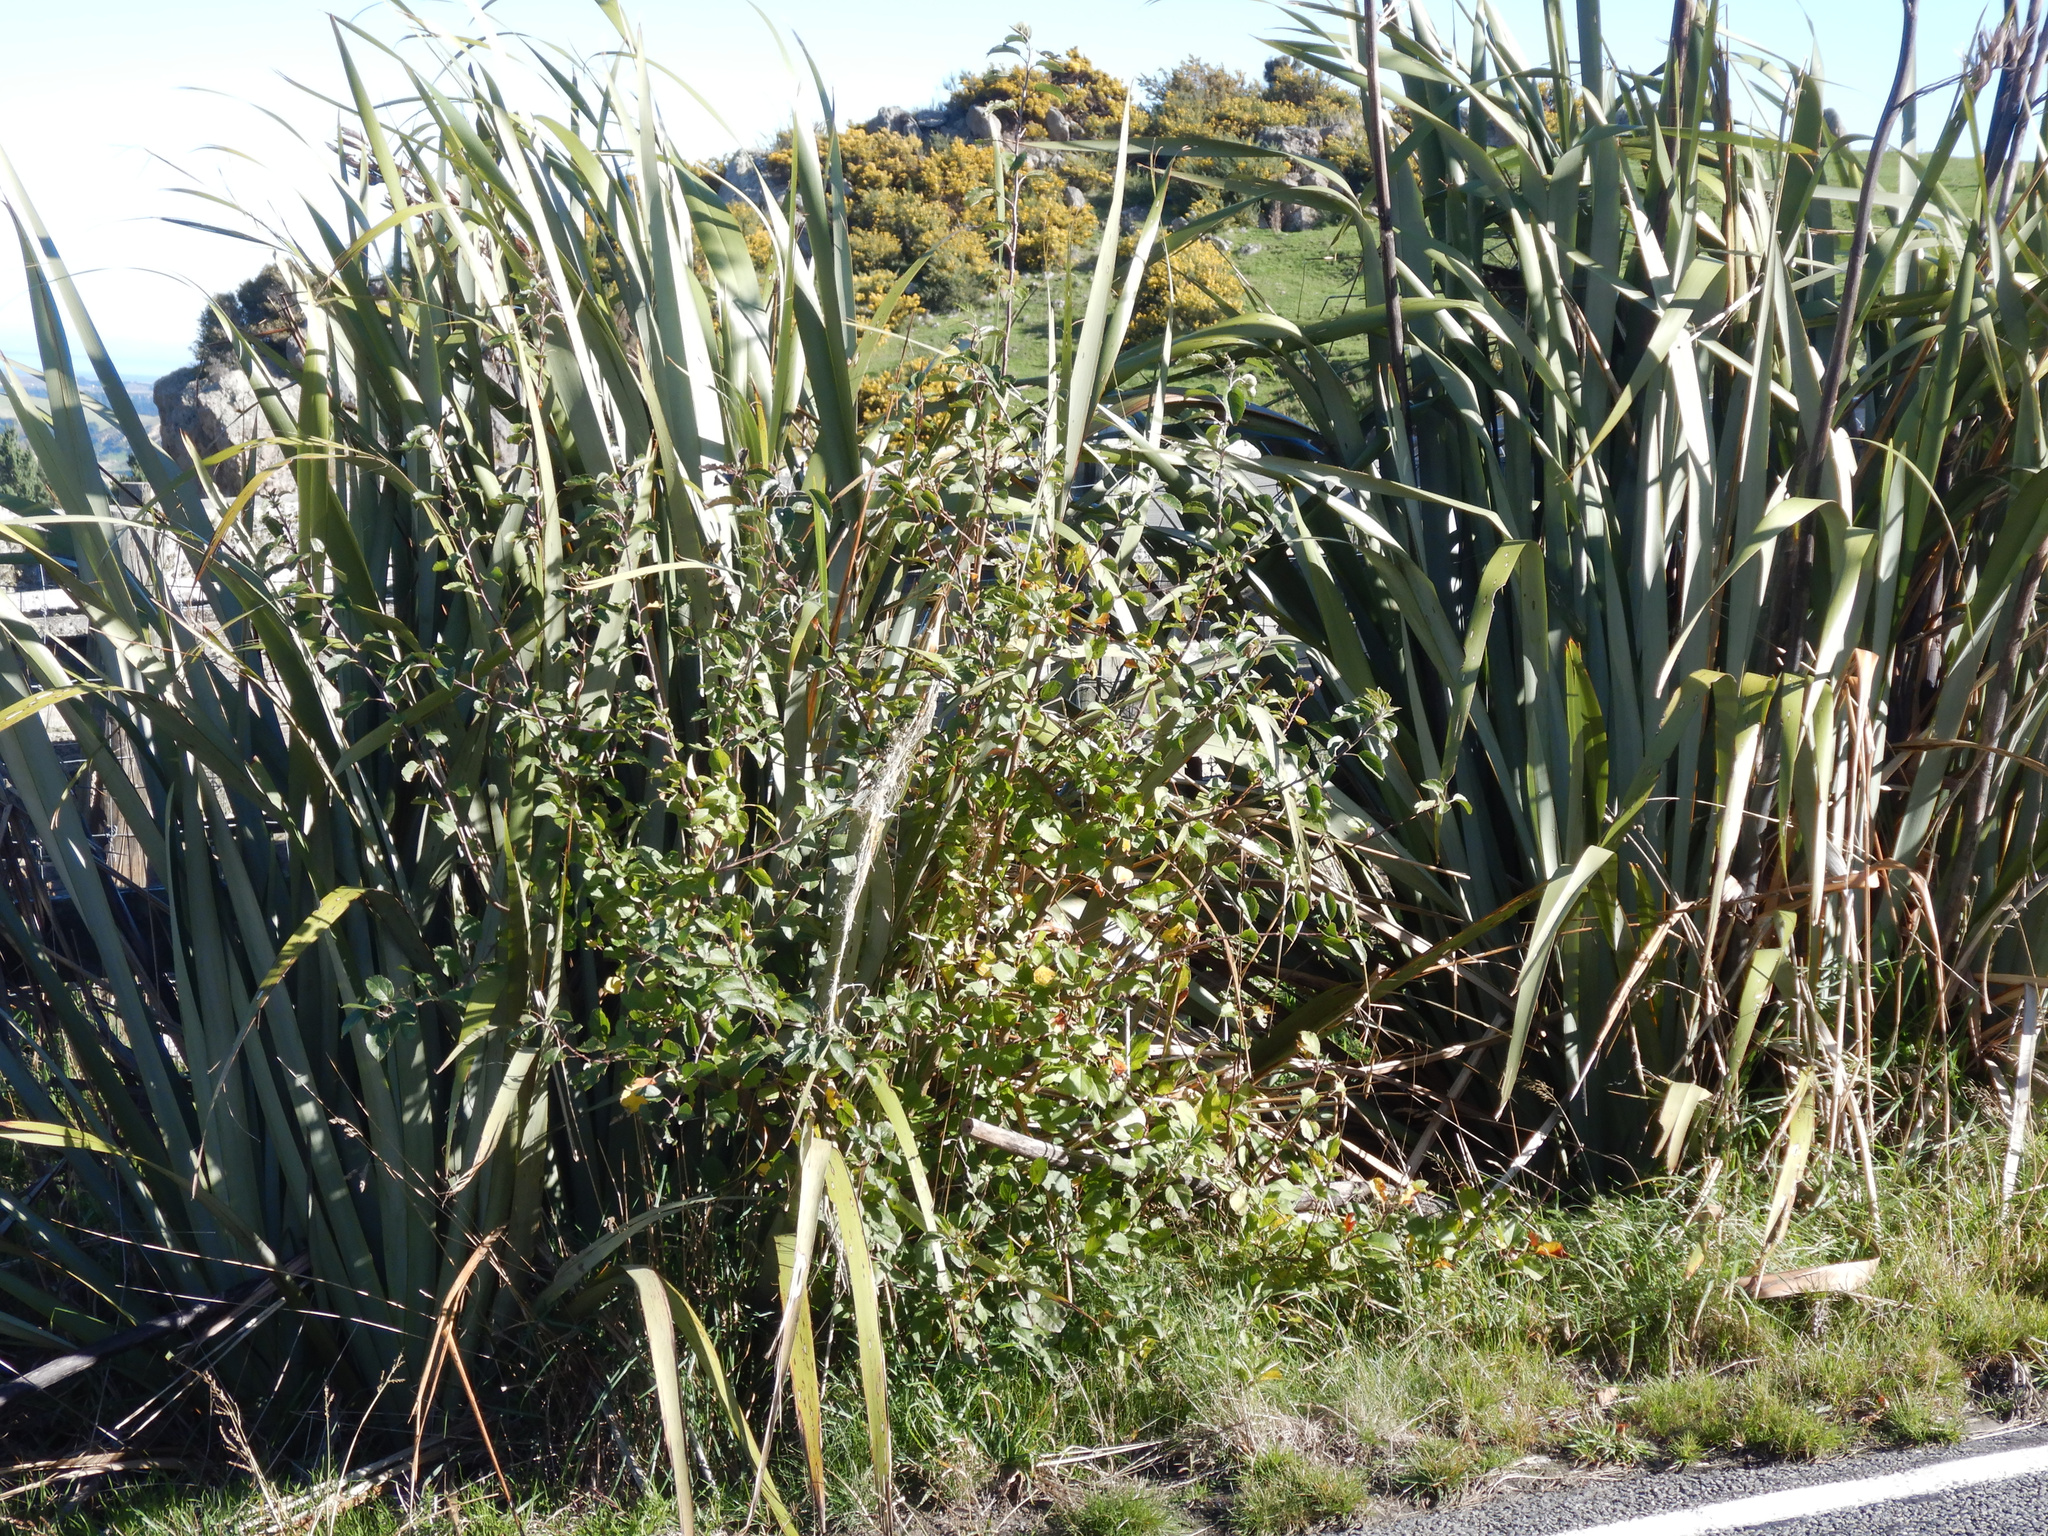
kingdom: Plantae
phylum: Tracheophyta
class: Magnoliopsida
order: Rosales
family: Rosaceae
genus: Malus
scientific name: Malus domestica
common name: Apple
